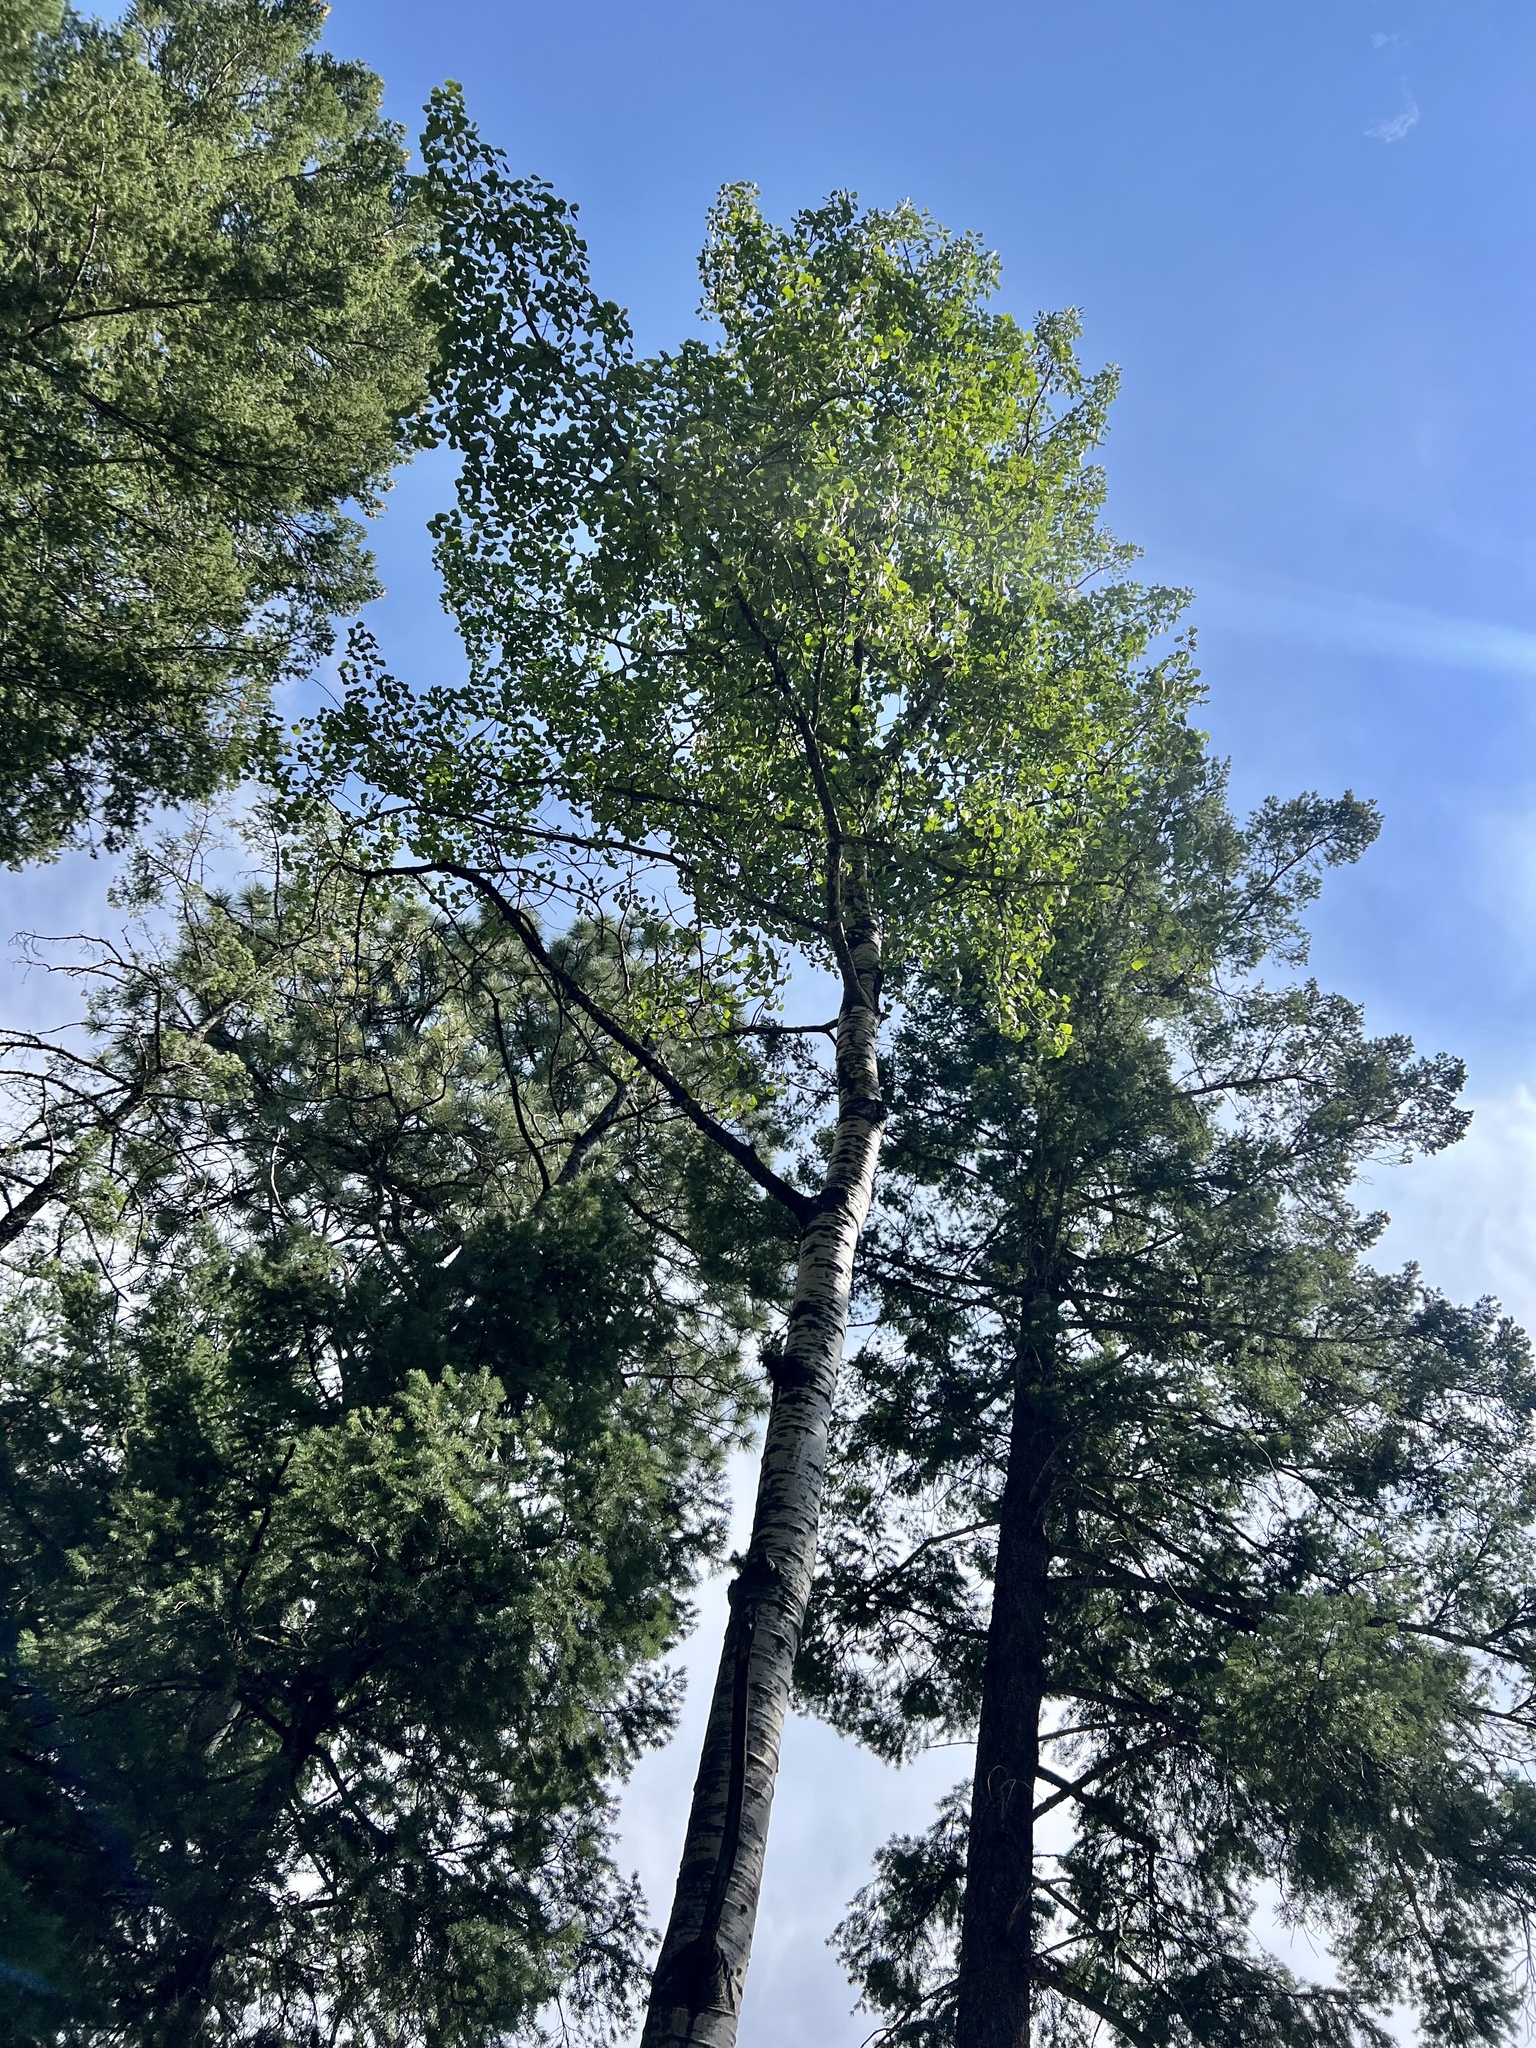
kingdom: Plantae
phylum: Tracheophyta
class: Magnoliopsida
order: Malpighiales
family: Salicaceae
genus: Populus
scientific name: Populus tremuloides
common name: Quaking aspen
